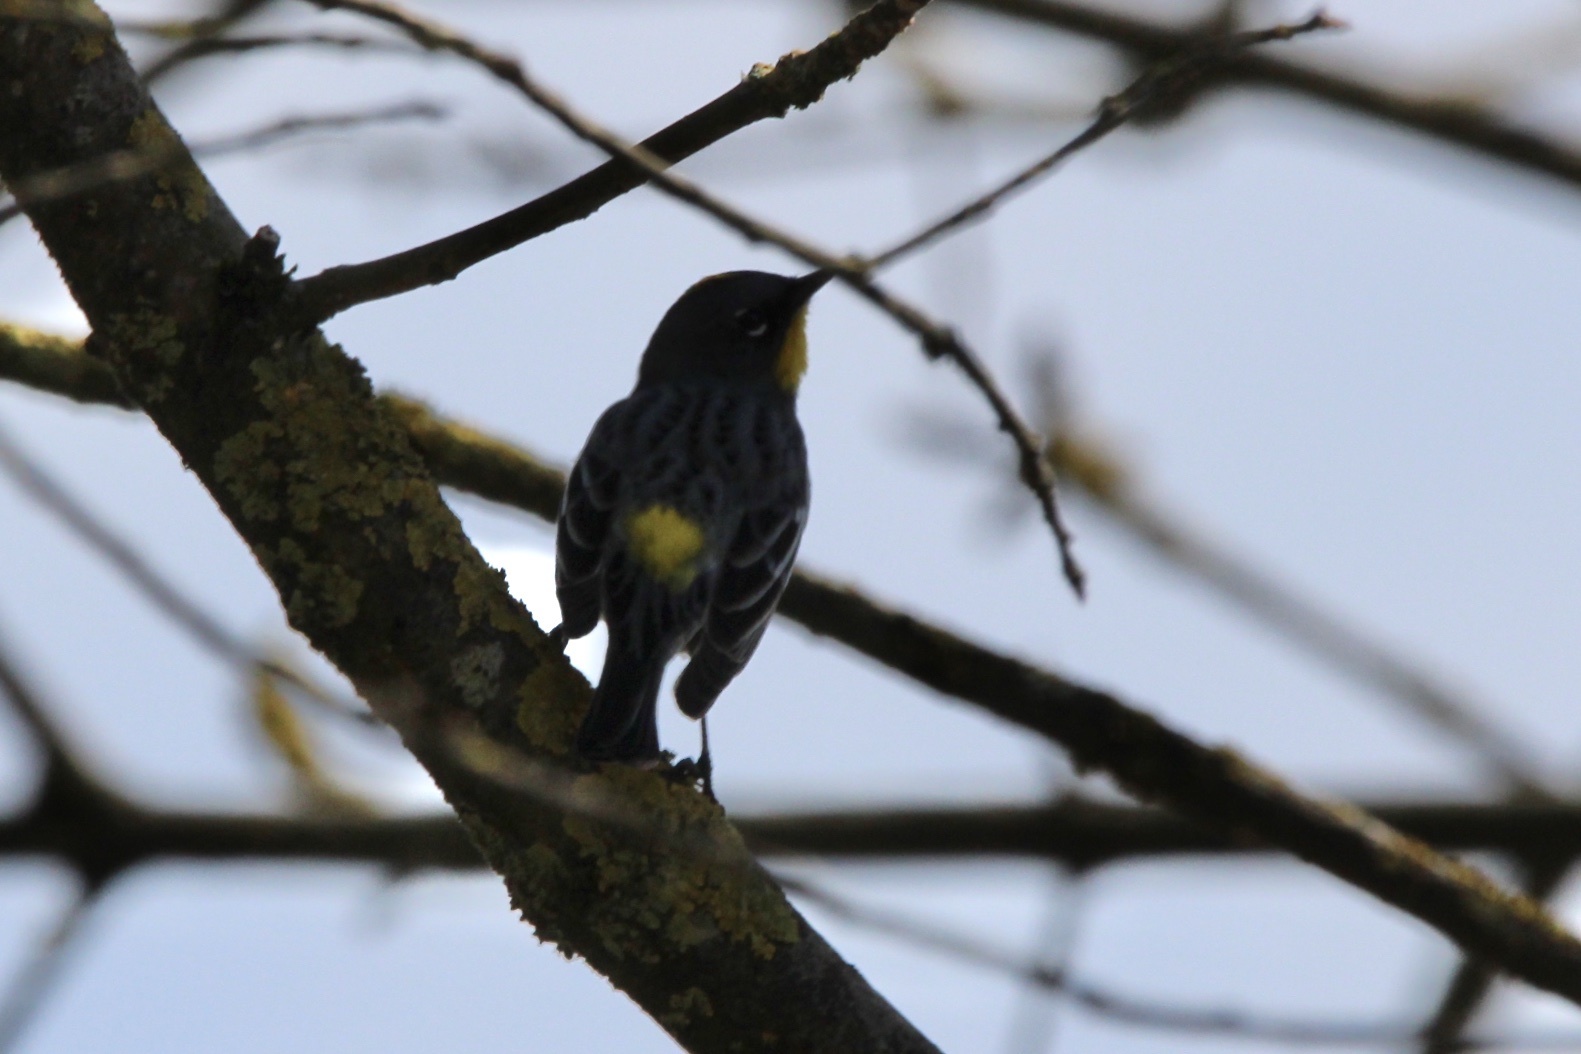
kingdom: Animalia
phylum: Chordata
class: Aves
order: Passeriformes
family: Parulidae
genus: Setophaga
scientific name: Setophaga auduboni
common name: Audubon's warbler
